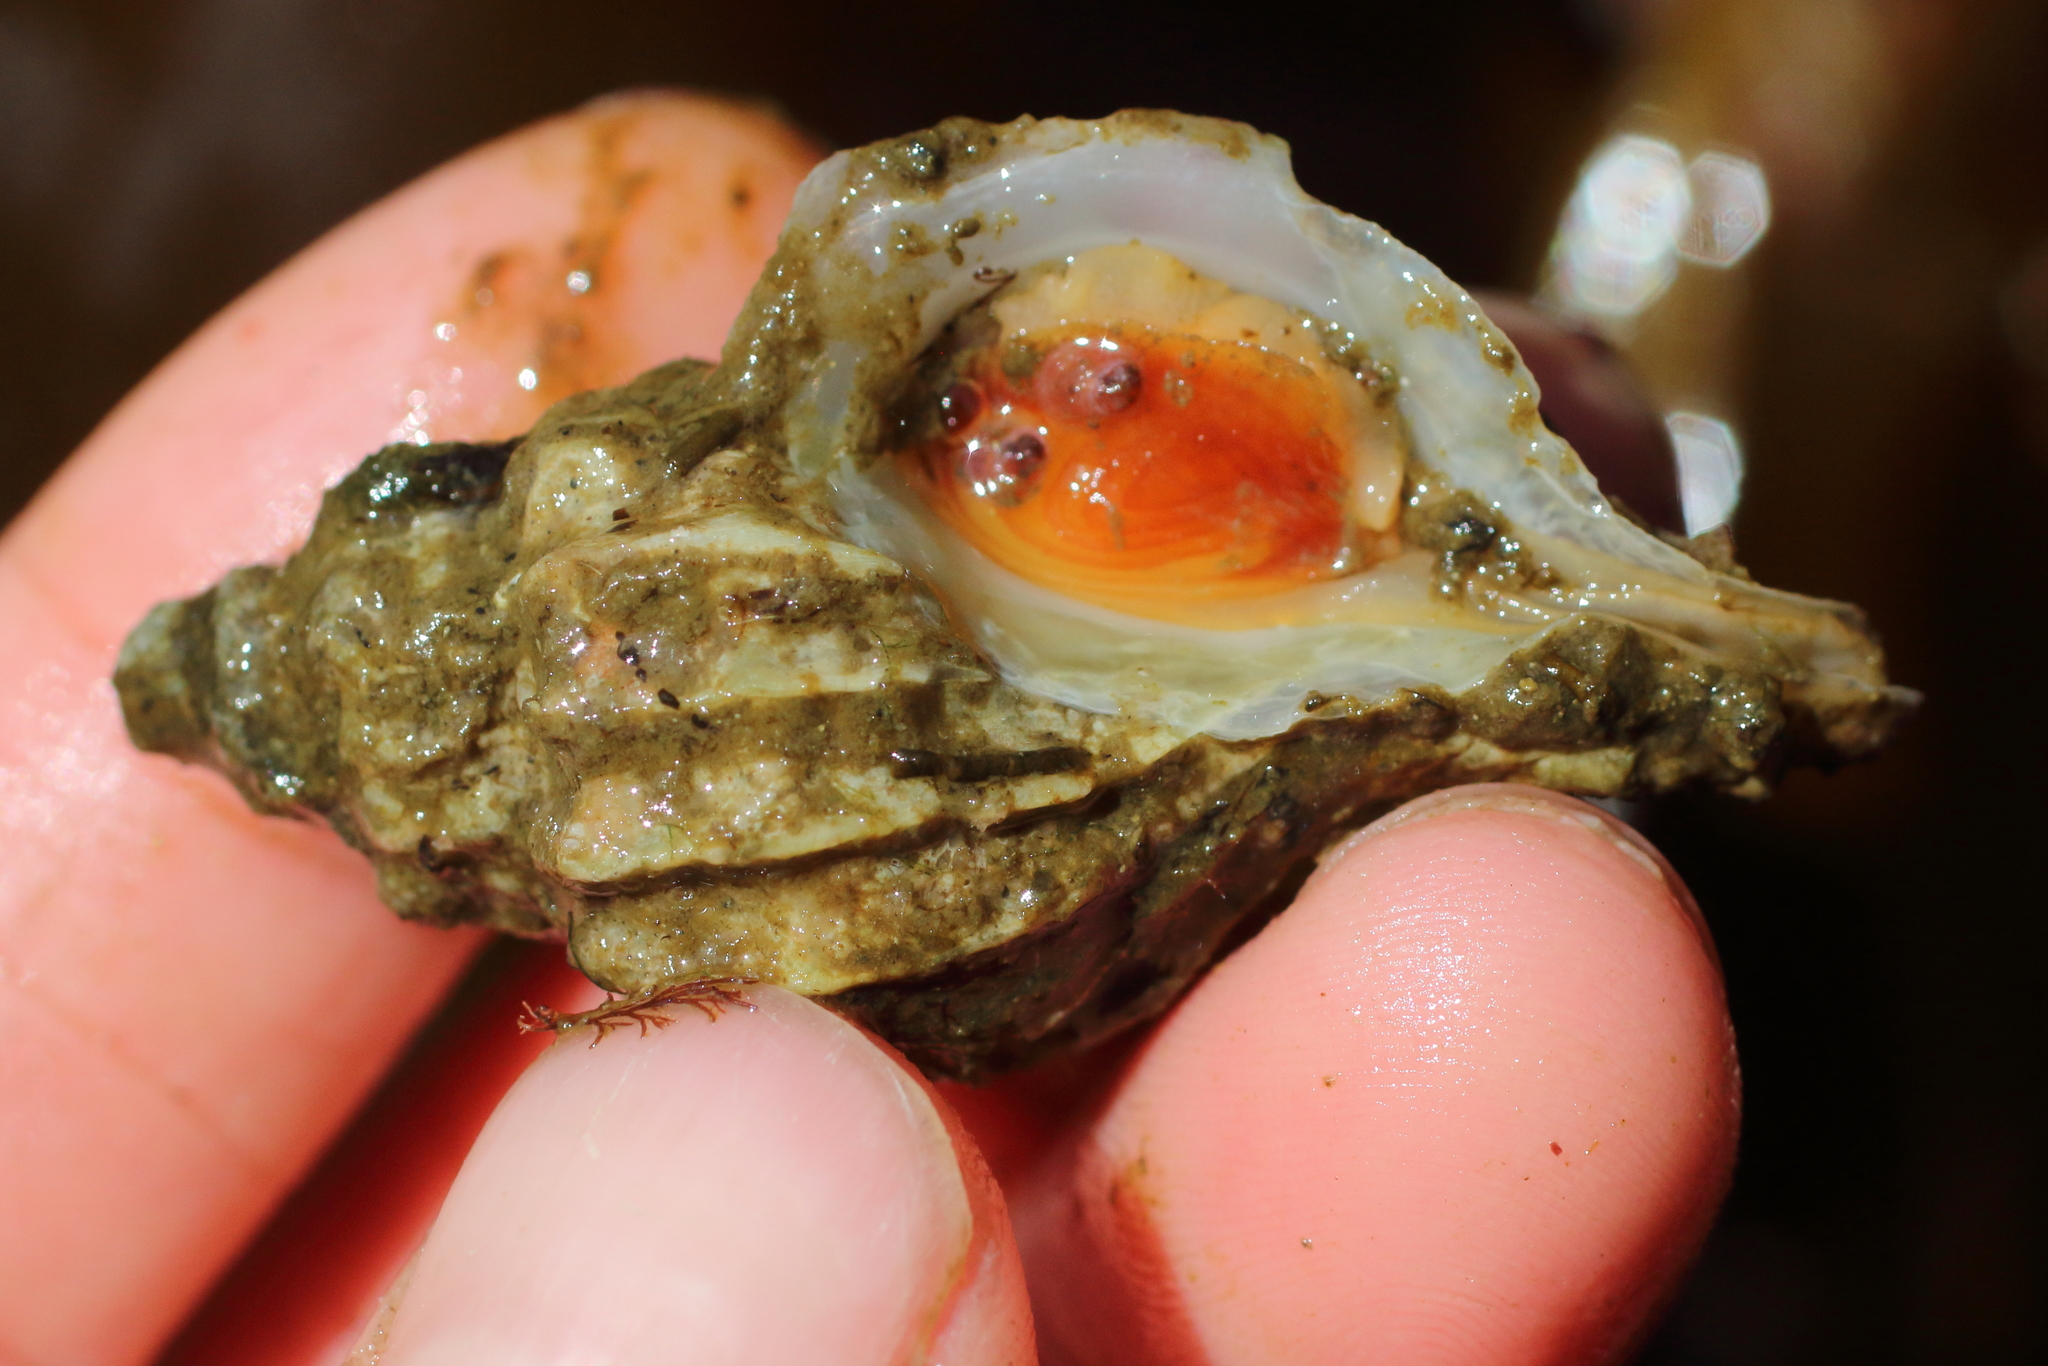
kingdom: Animalia
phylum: Mollusca
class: Gastropoda
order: Neogastropoda
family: Muricidae
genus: Scabrotrophon
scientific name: Scabrotrophon stuarti
